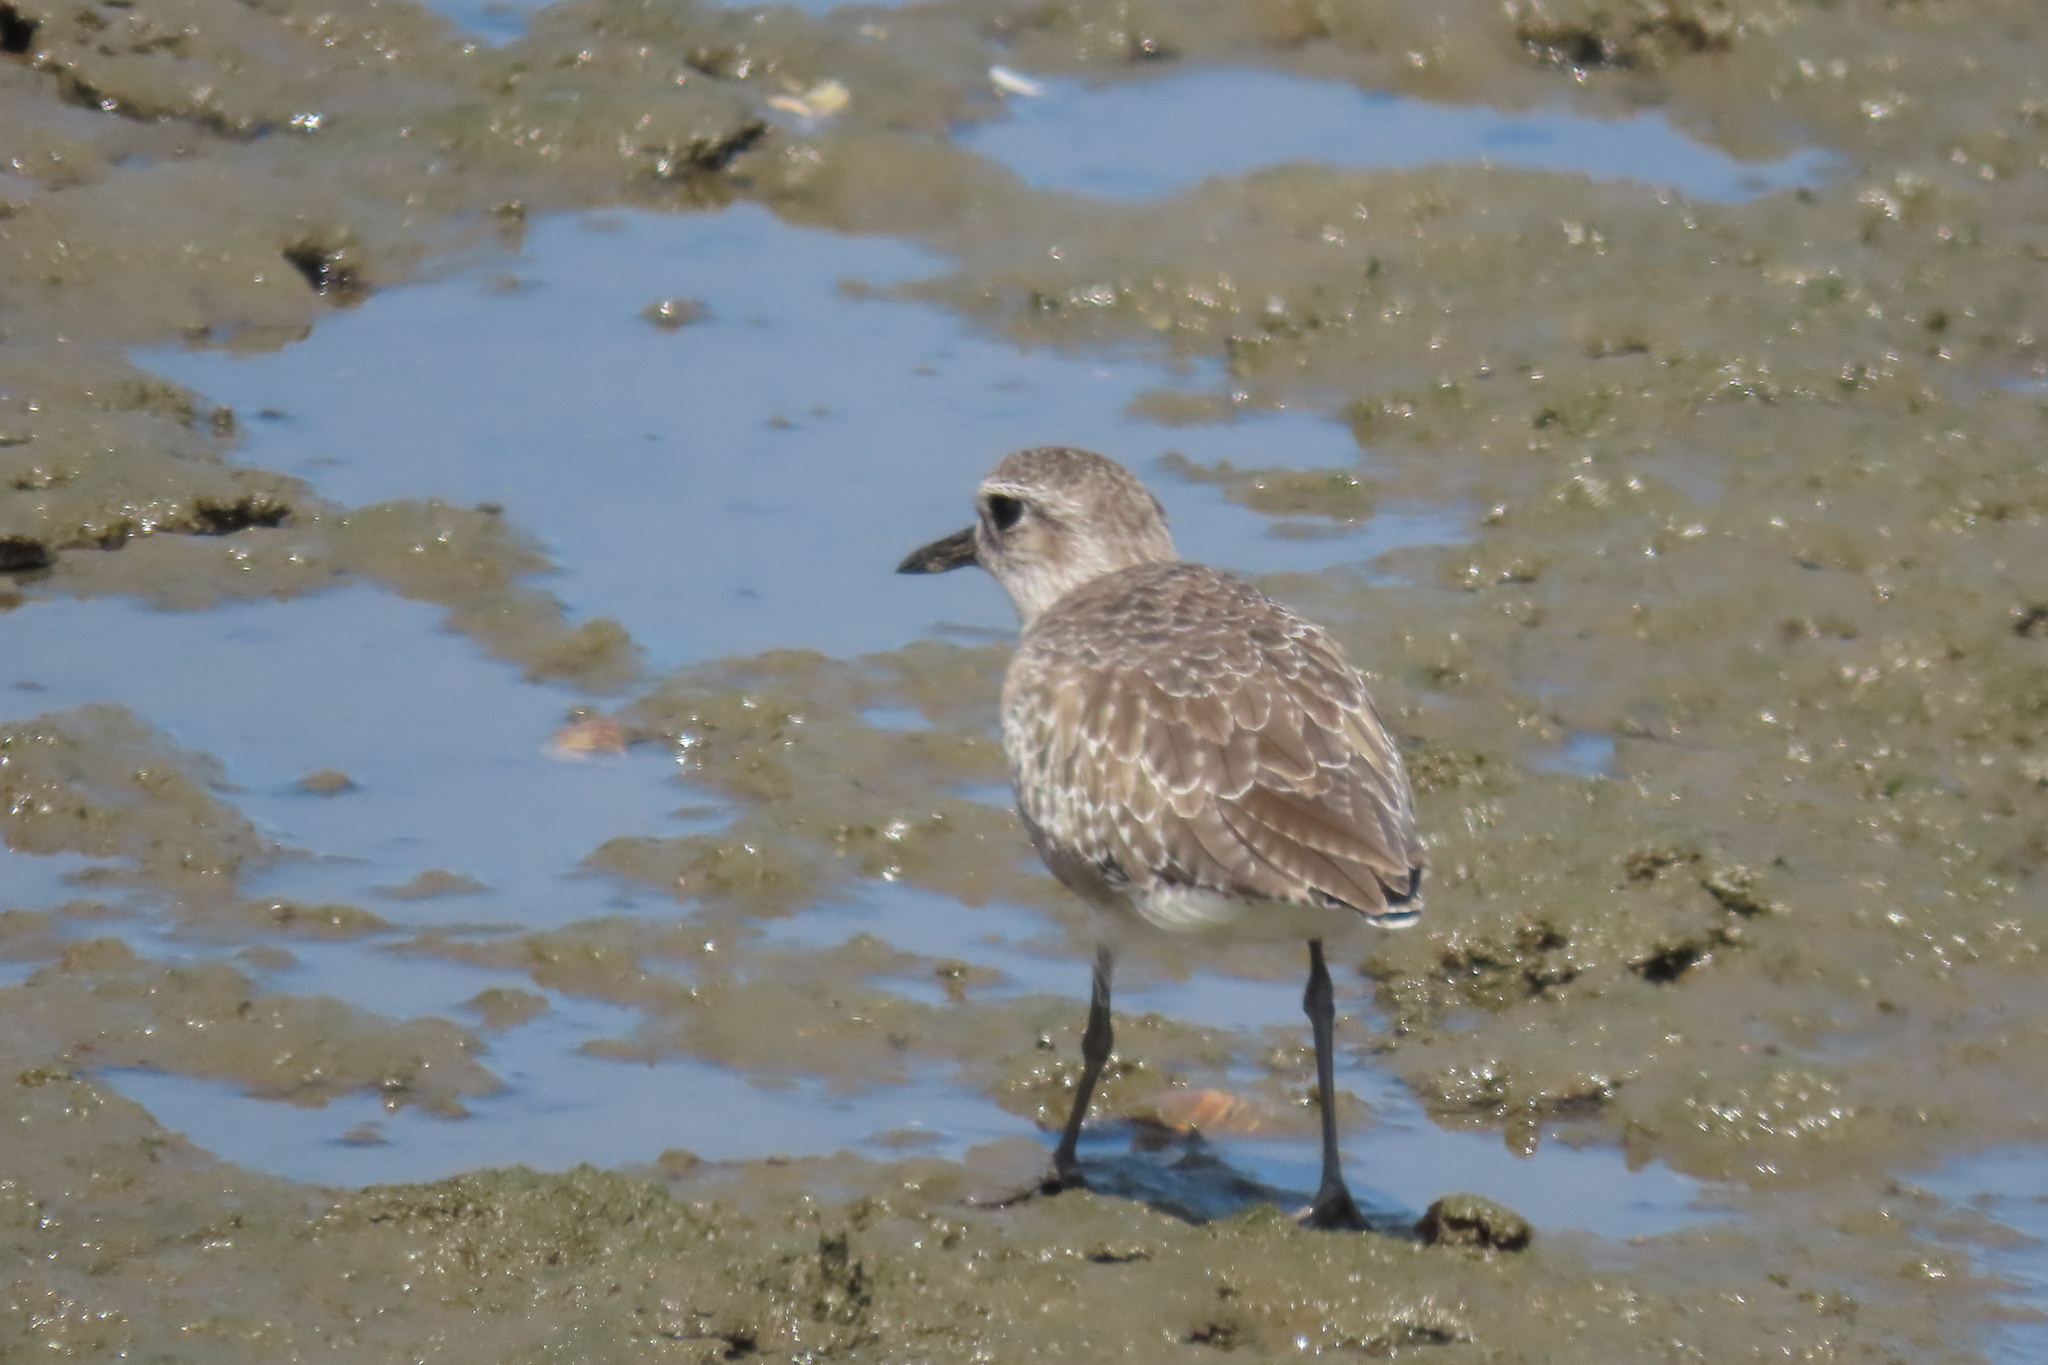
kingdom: Animalia
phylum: Chordata
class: Aves
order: Charadriiformes
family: Charadriidae
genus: Pluvialis
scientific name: Pluvialis squatarola
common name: Grey plover
